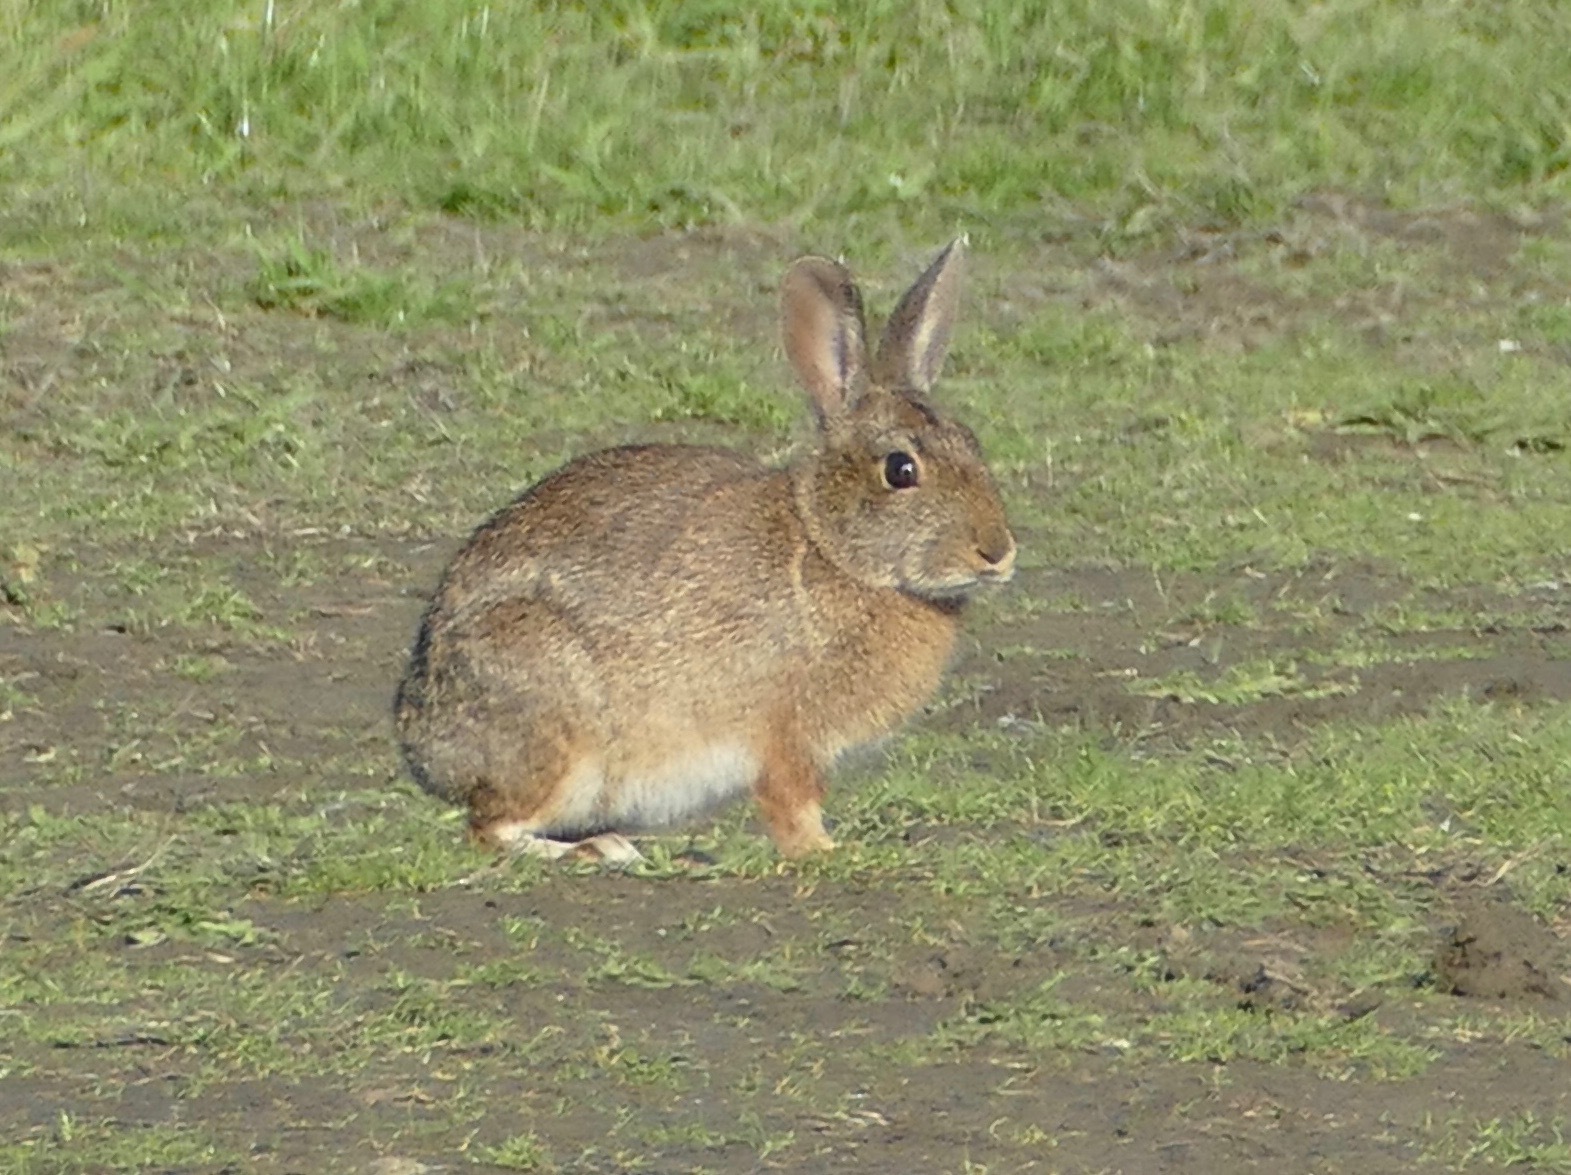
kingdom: Animalia
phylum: Chordata
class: Mammalia
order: Lagomorpha
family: Leporidae
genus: Sylvilagus
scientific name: Sylvilagus bachmani
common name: Brush rabbit
